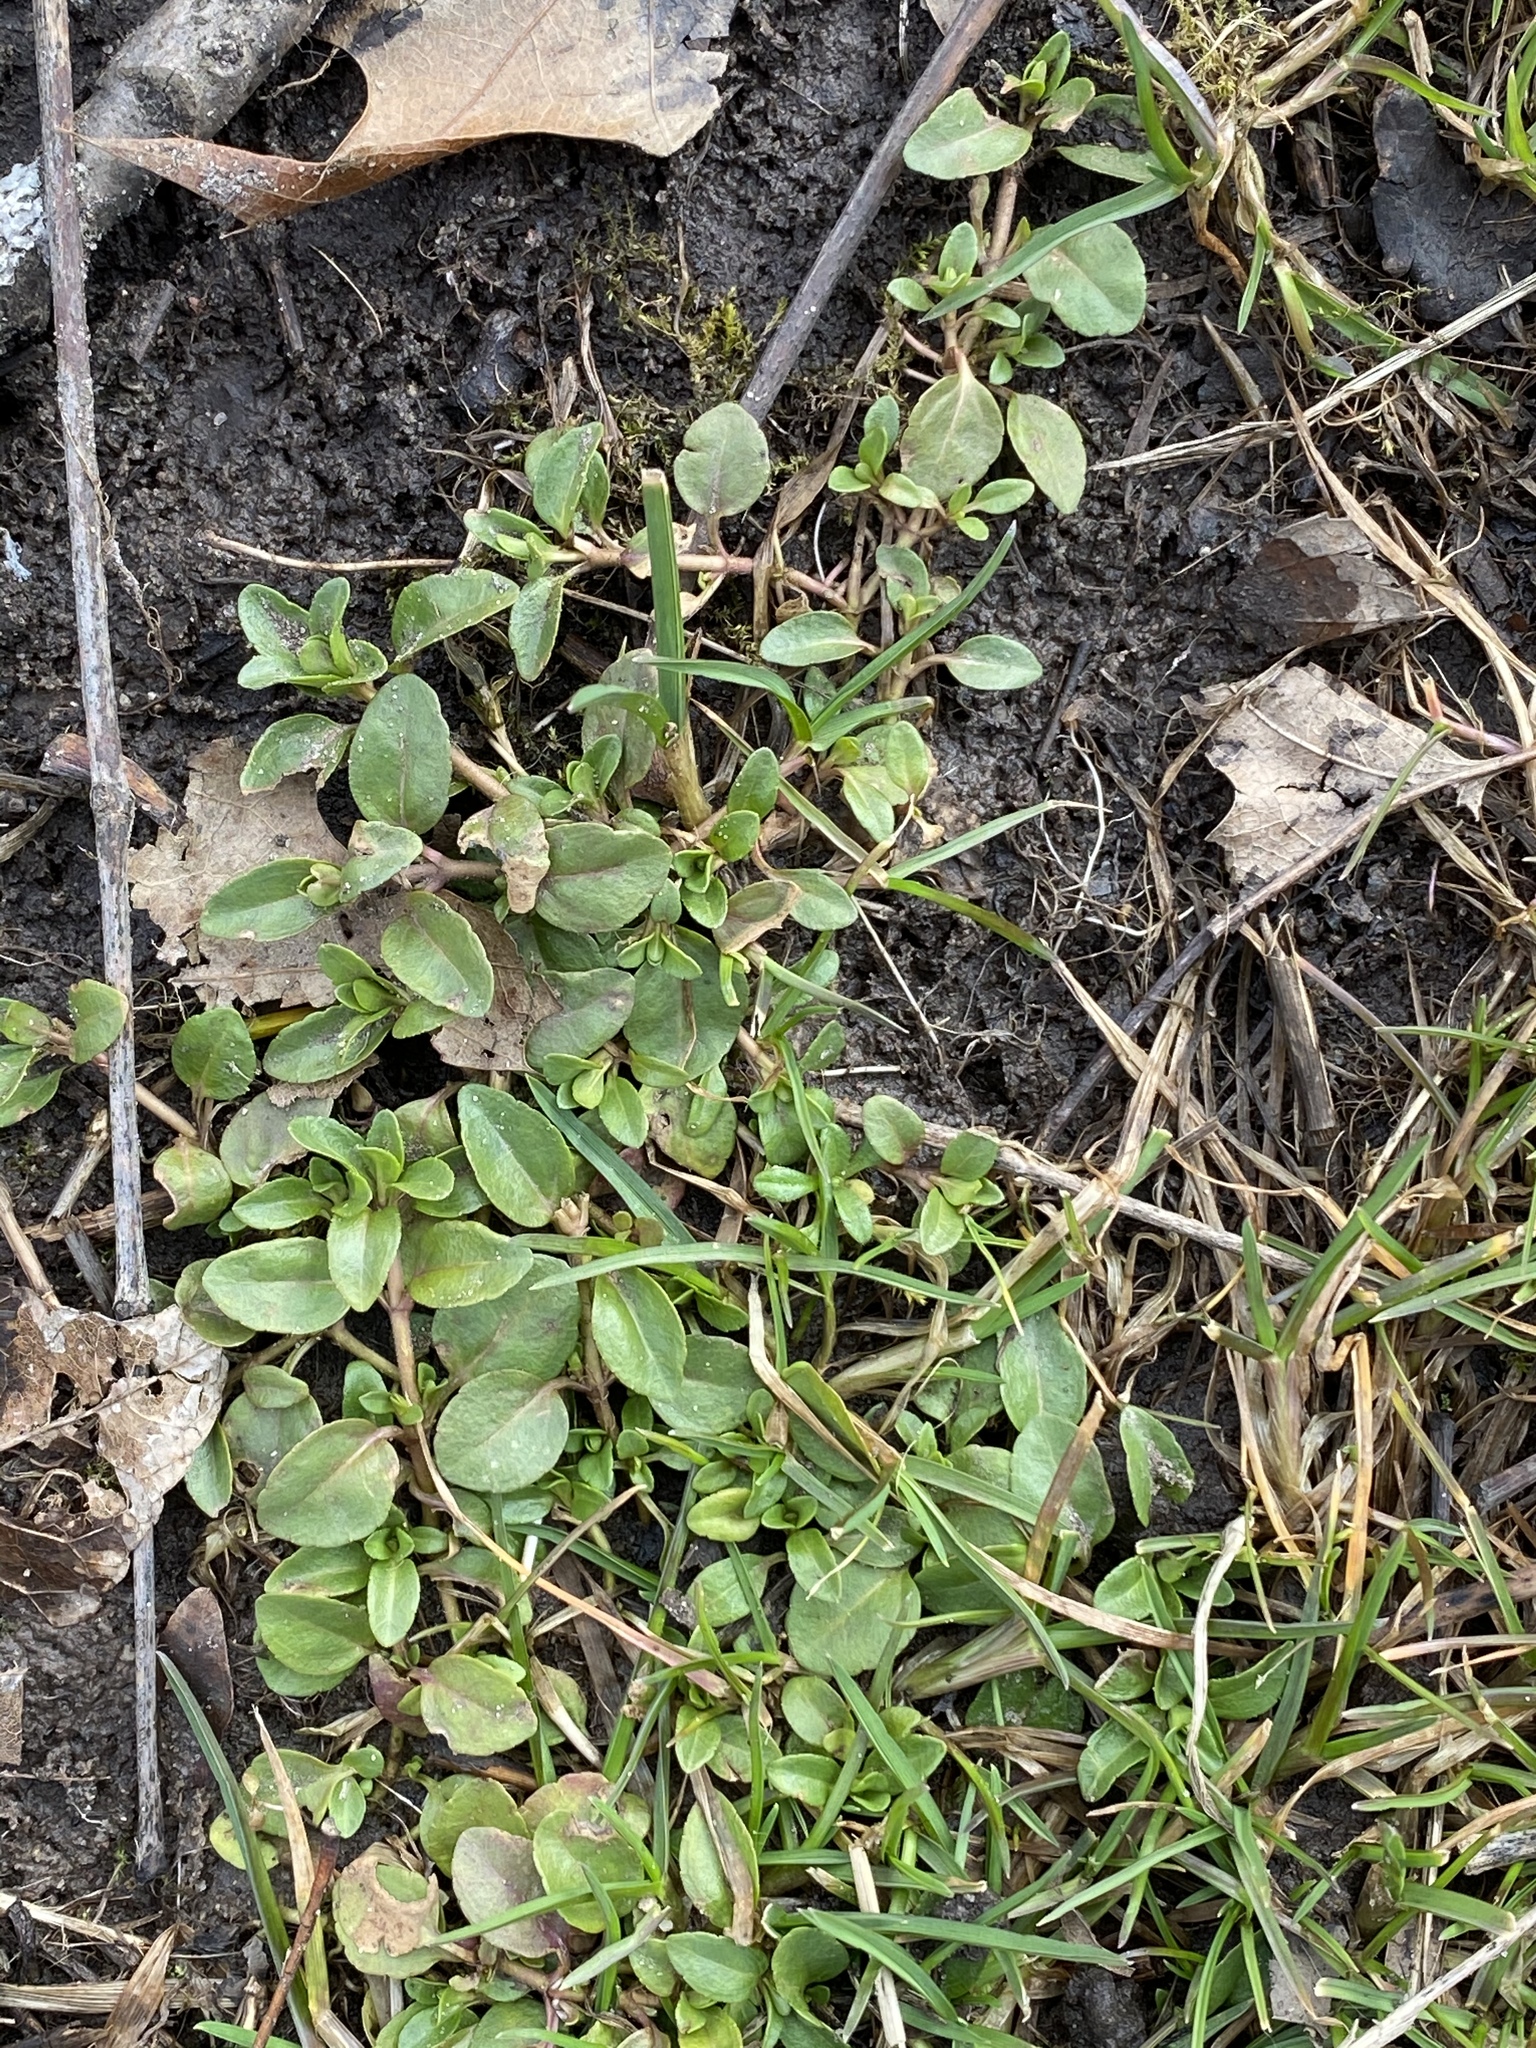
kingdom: Plantae
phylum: Tracheophyta
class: Magnoliopsida
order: Lamiales
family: Plantaginaceae
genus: Veronica
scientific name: Veronica serpyllifolia
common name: Thyme-leaved speedwell
